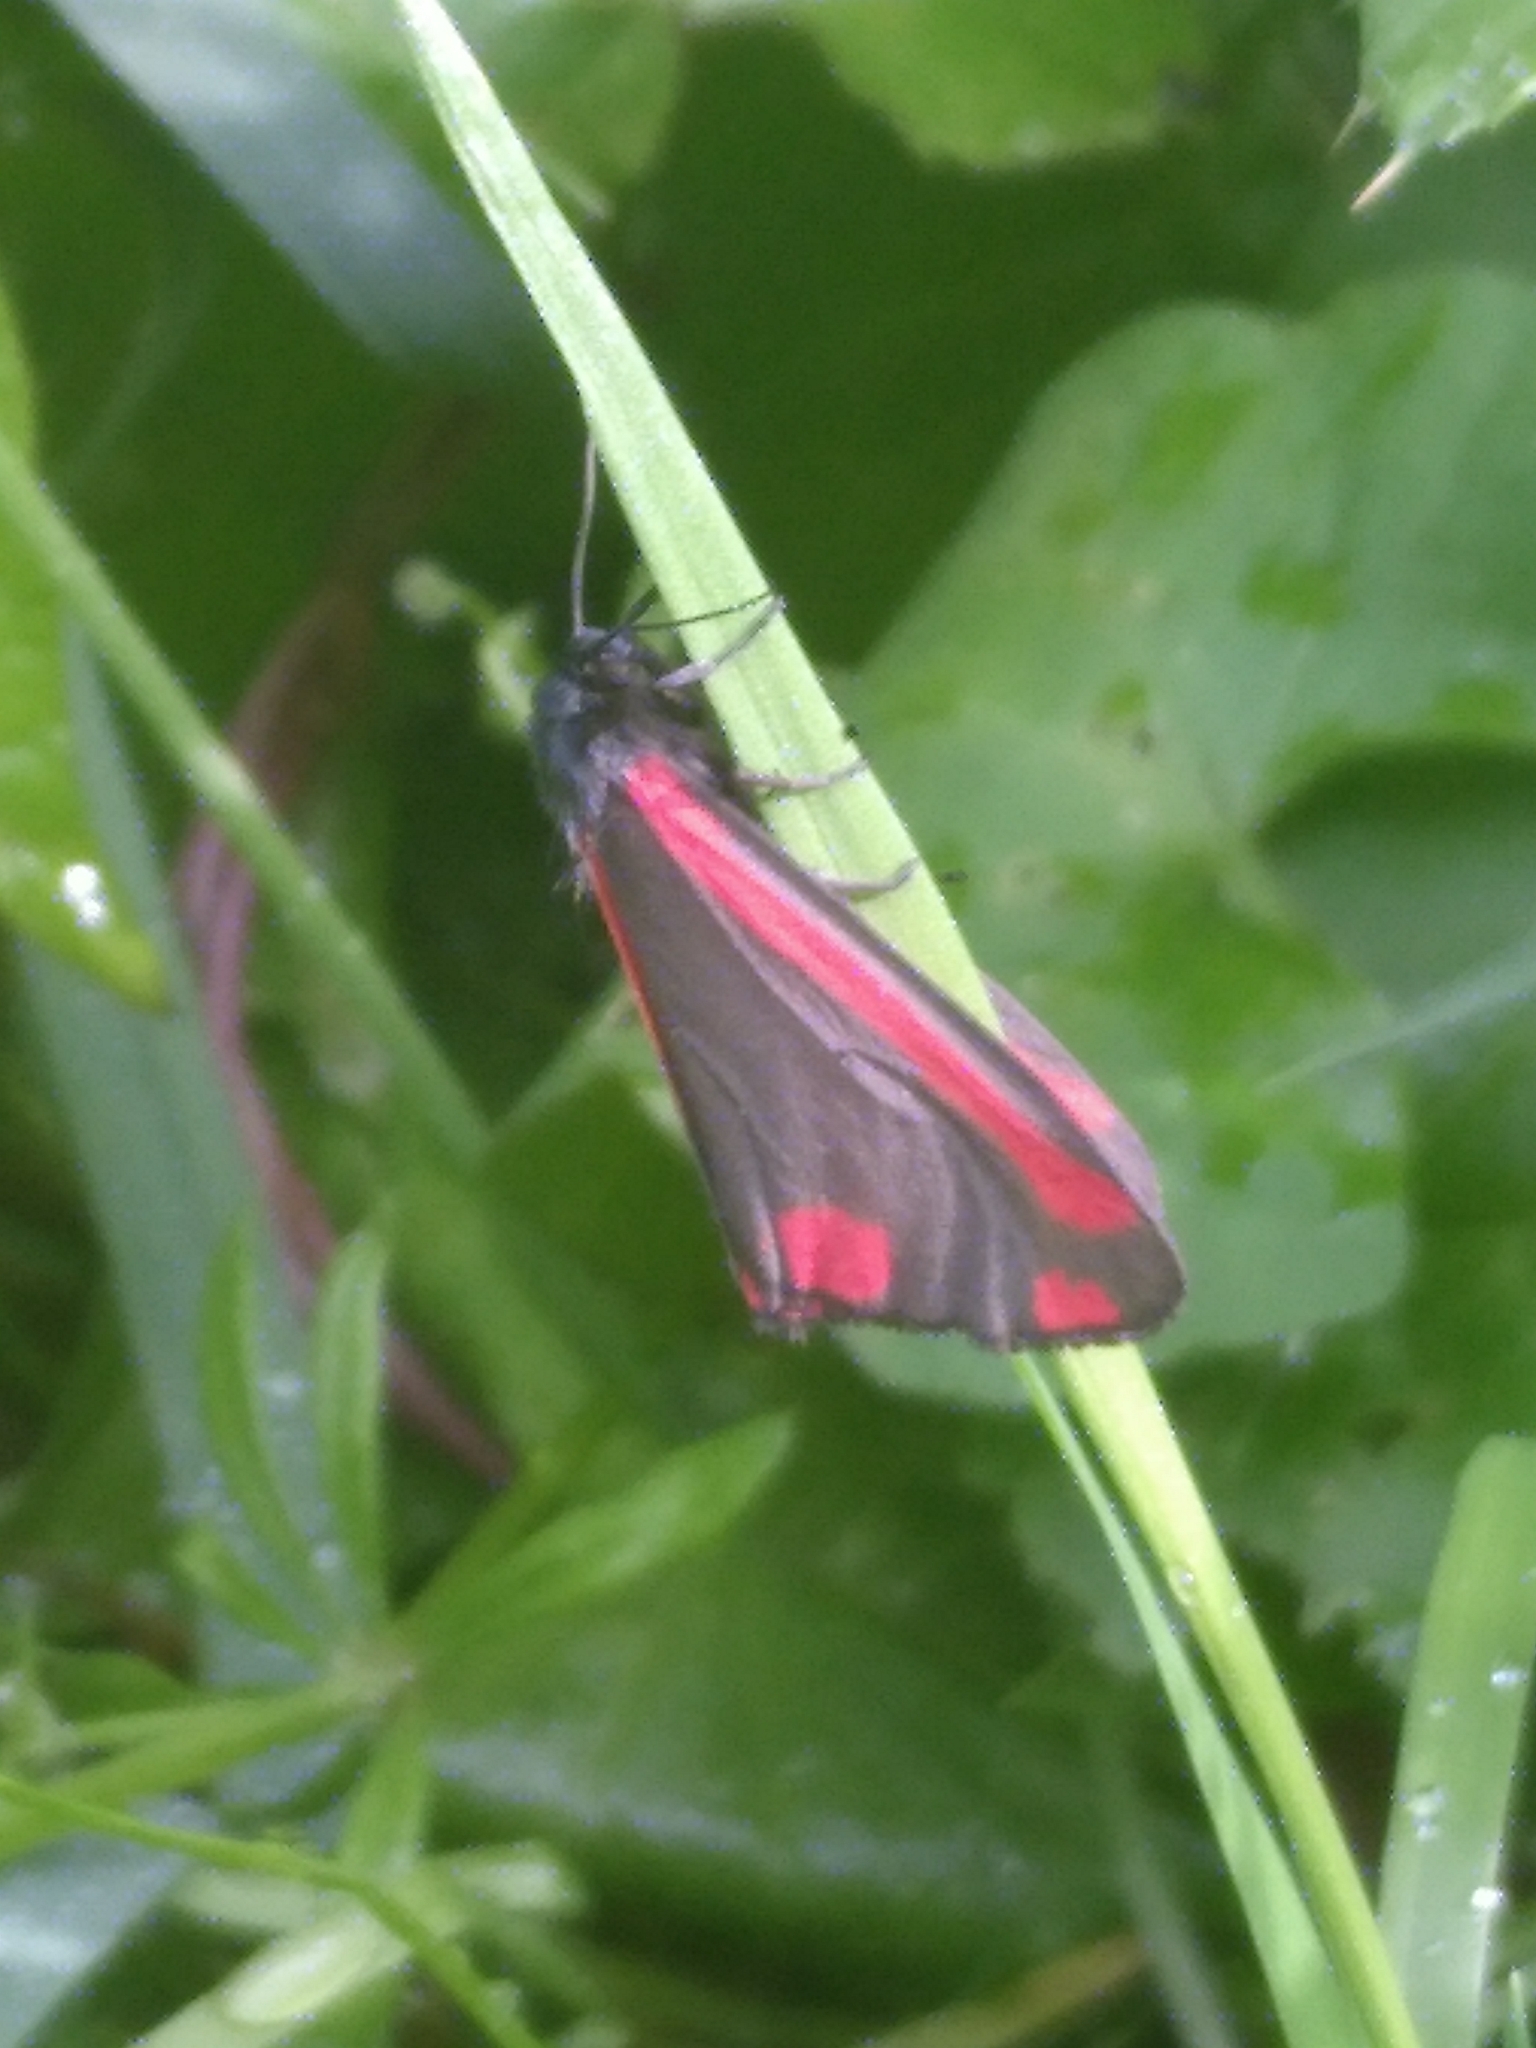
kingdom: Animalia
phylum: Arthropoda
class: Insecta
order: Lepidoptera
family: Erebidae
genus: Tyria
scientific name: Tyria jacobaeae
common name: Cinnabar
